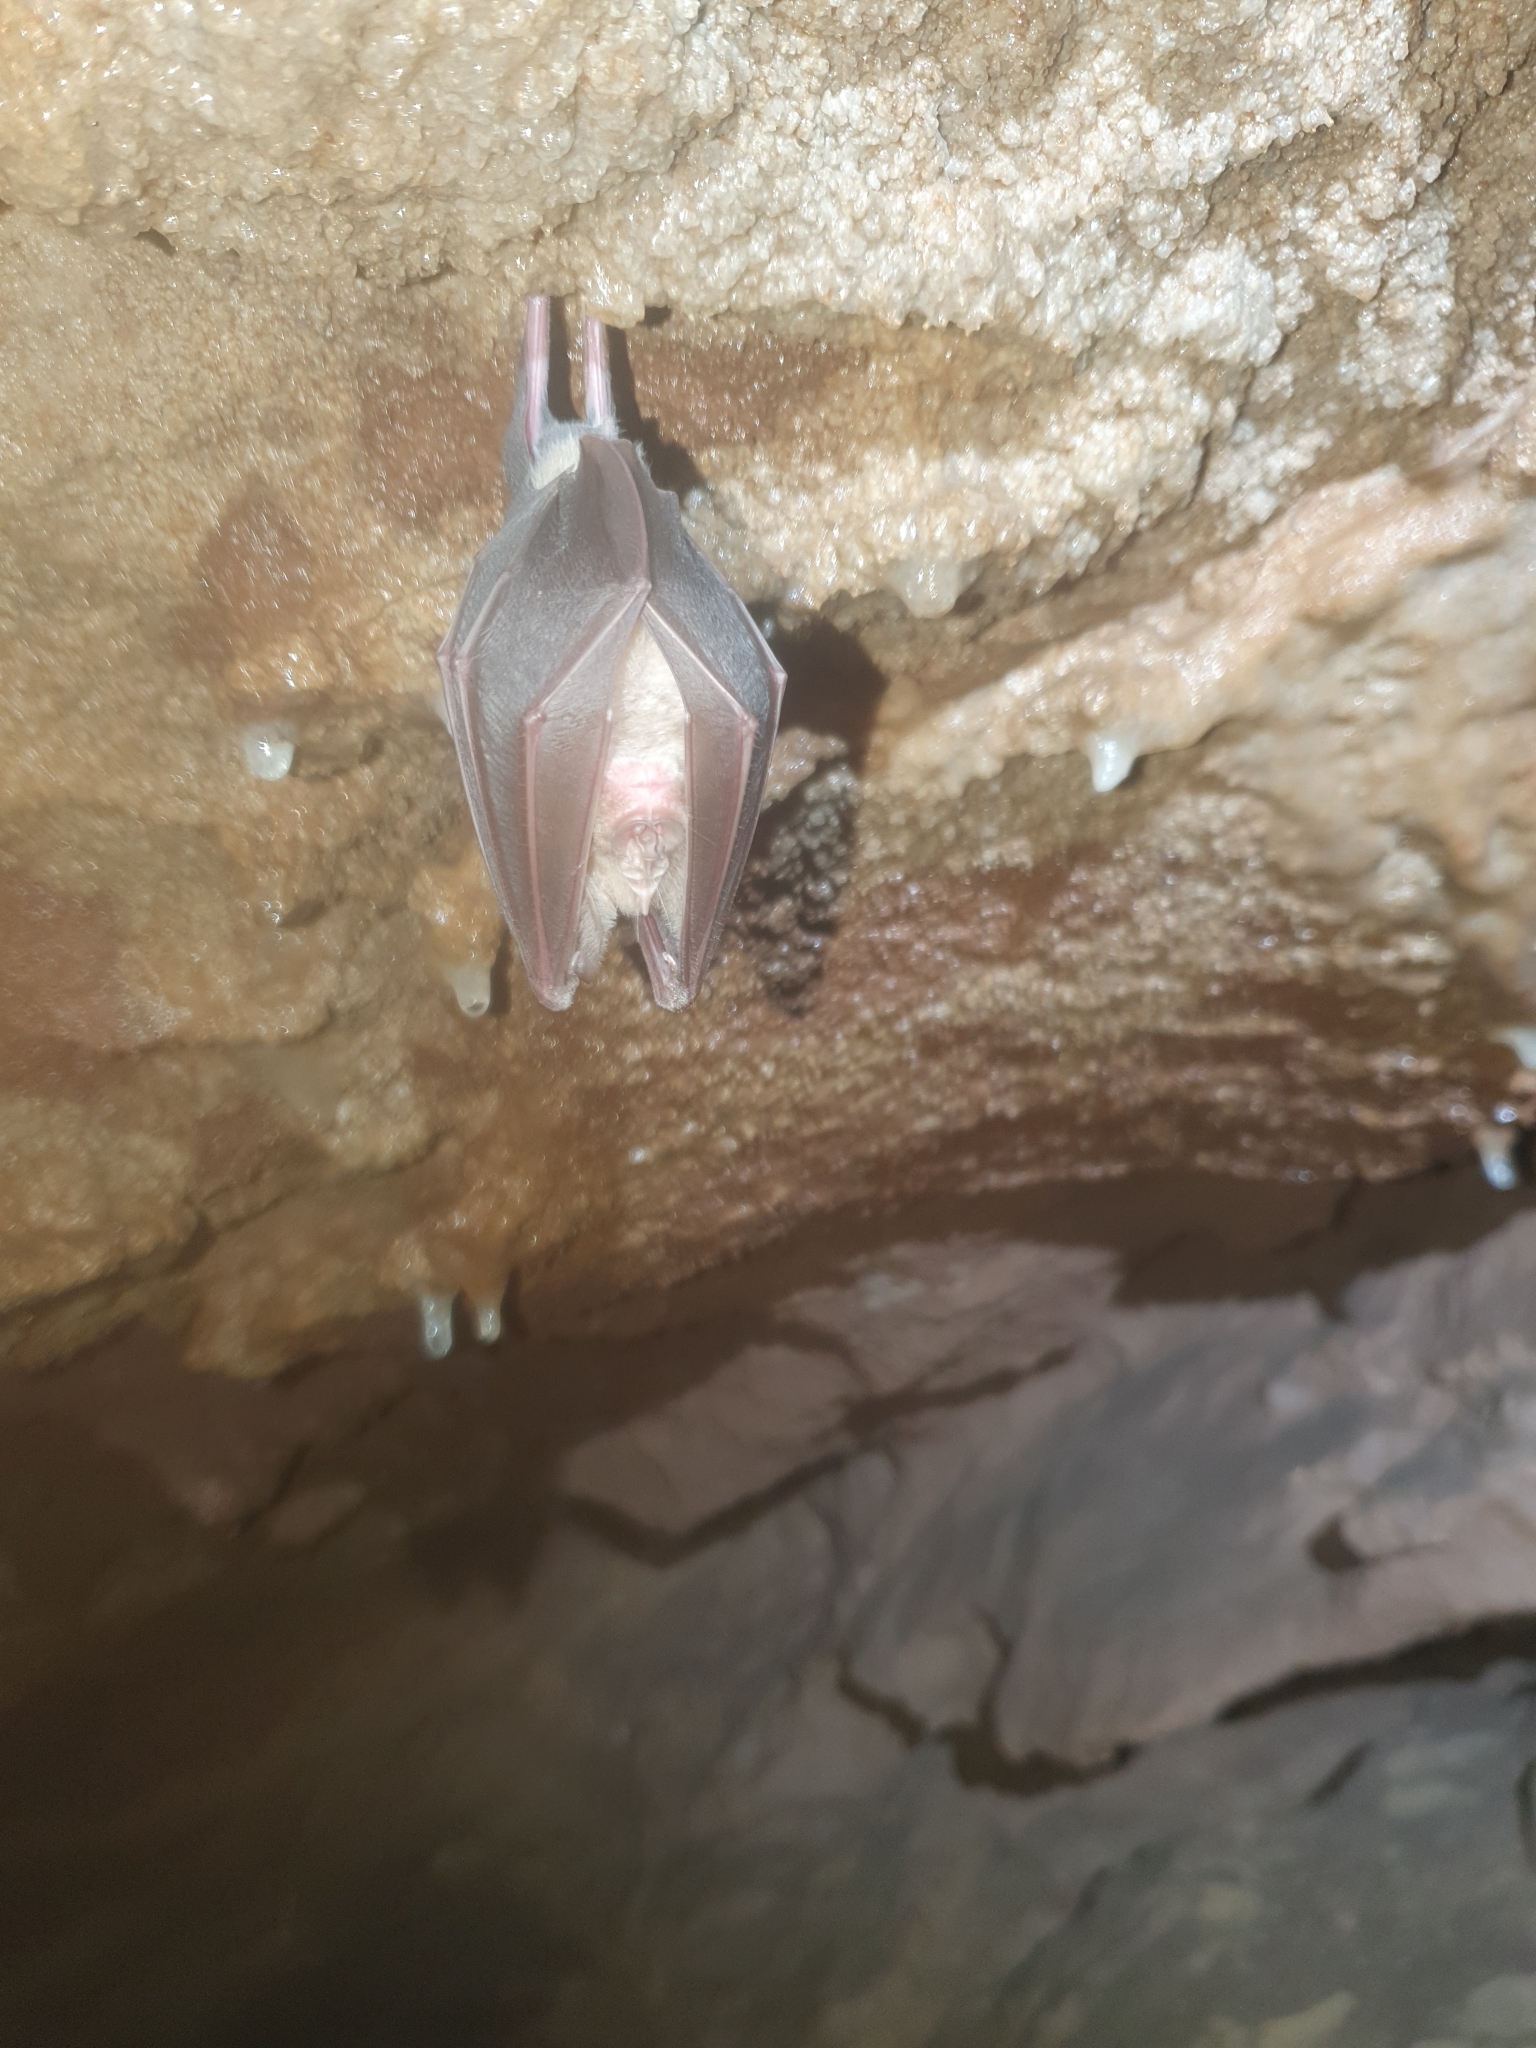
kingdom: Animalia
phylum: Chordata
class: Mammalia
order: Chiroptera
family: Rhinolophidae
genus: Rhinolophus
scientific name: Rhinolophus ferrumequinum
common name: Greater horseshoe bat
